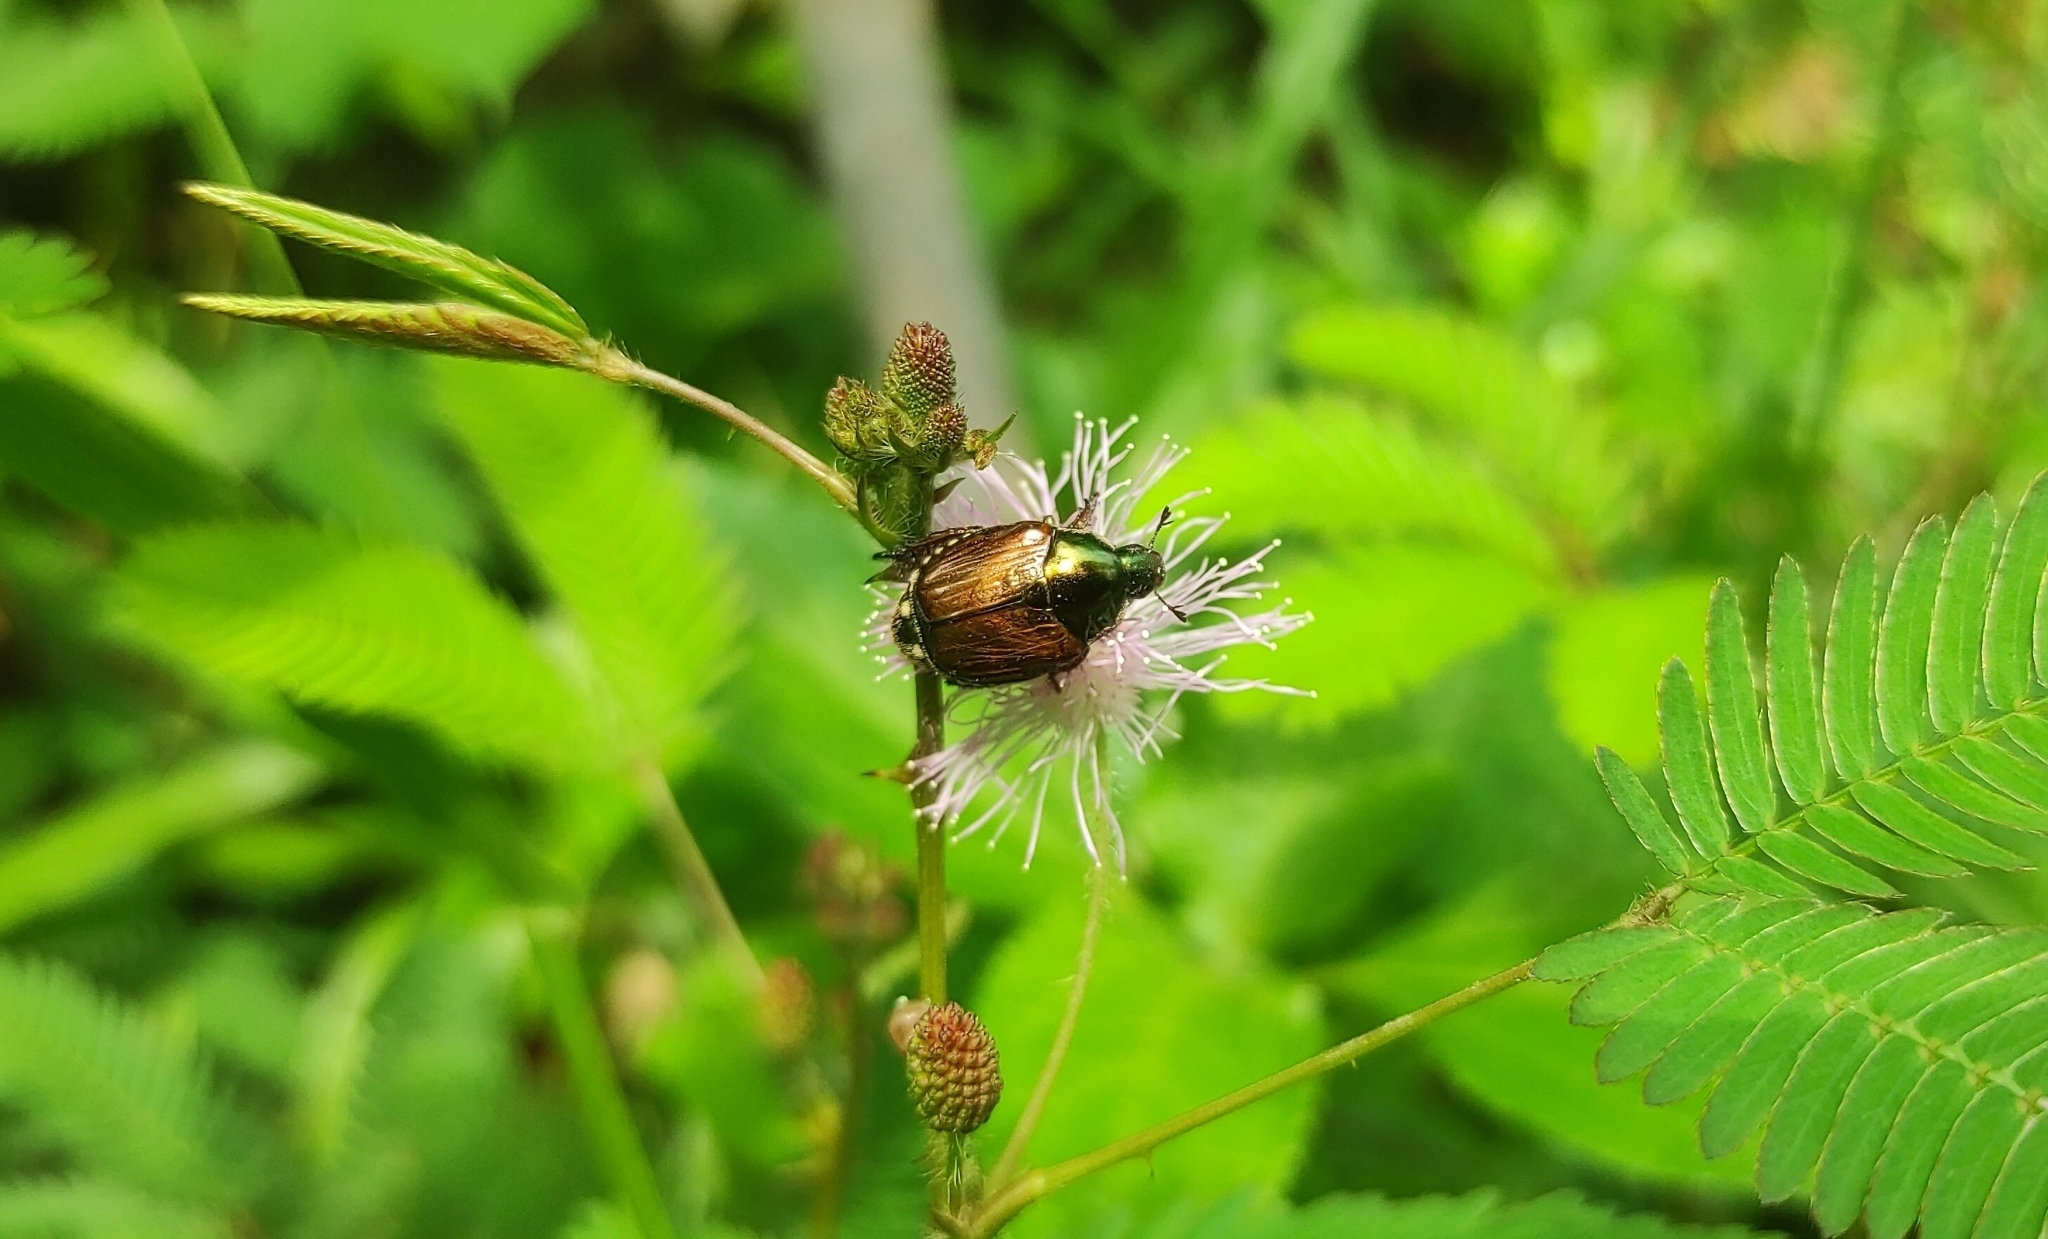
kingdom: Animalia
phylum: Arthropoda
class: Insecta
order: Coleoptera
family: Scarabaeidae
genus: Popillia
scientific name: Popillia japonica
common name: Japanese beetle
